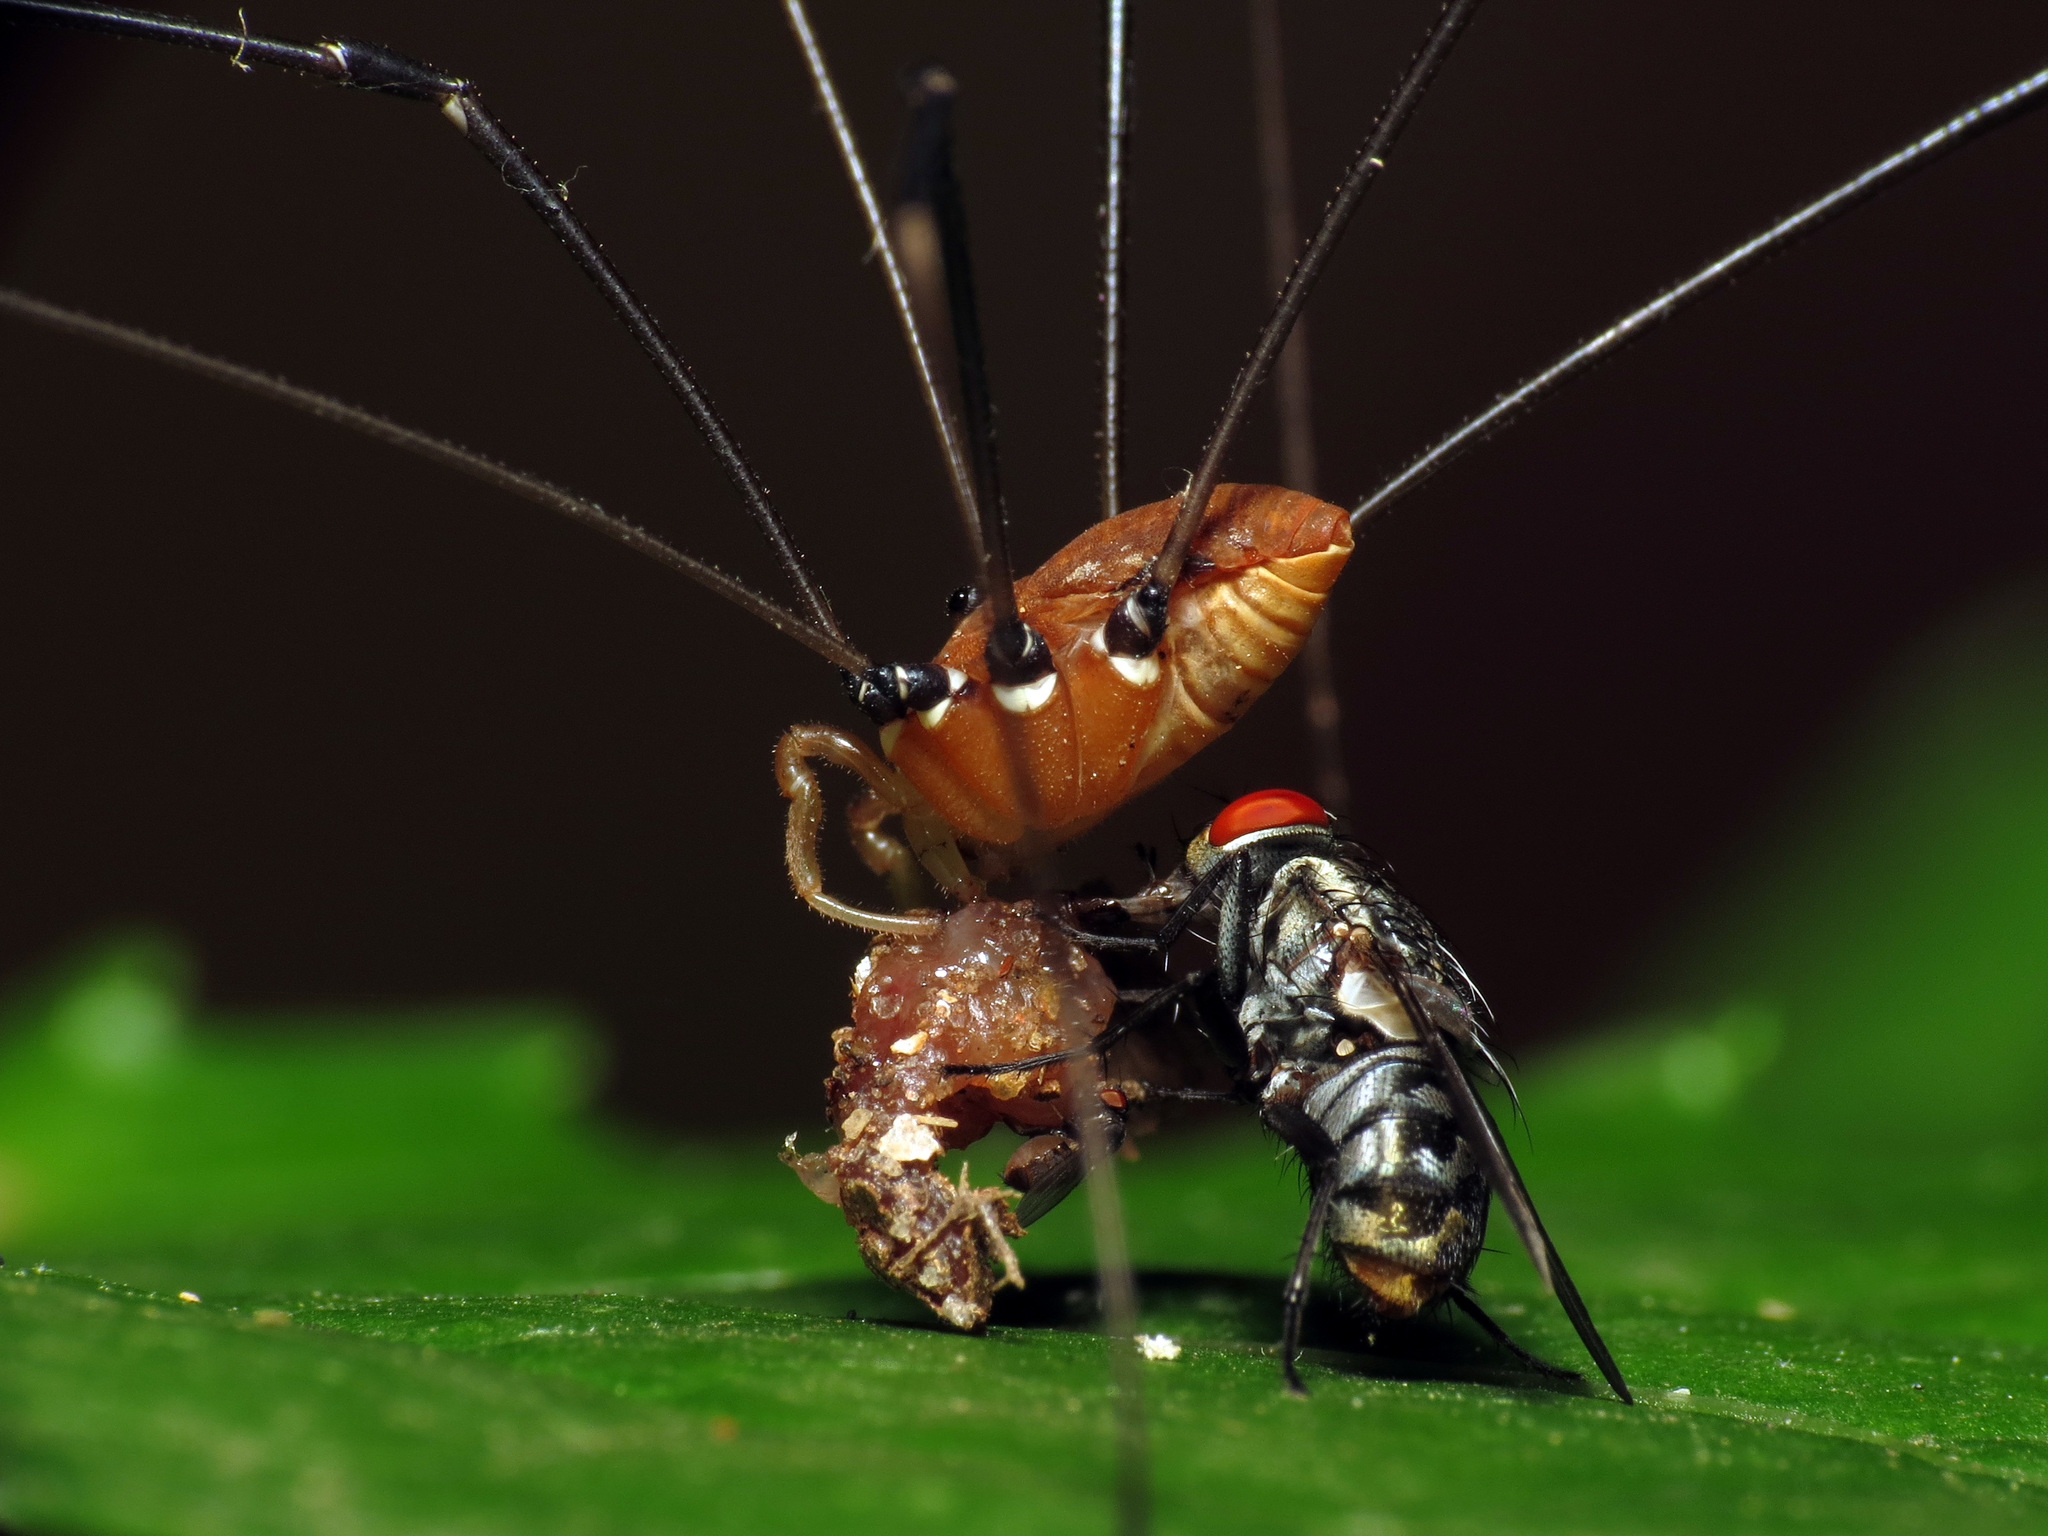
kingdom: Animalia
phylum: Arthropoda
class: Arachnida
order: Opiliones
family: Sclerosomatidae
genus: Leiobunum
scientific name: Leiobunum euserratipalpe
